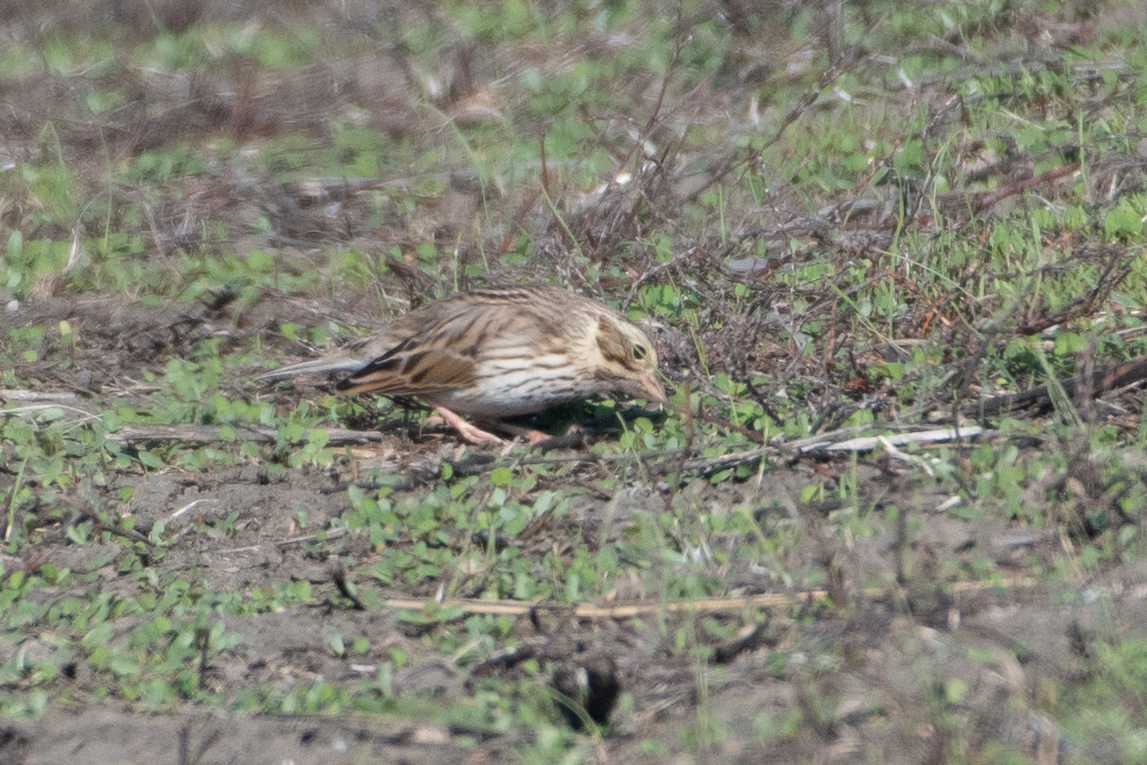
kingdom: Animalia
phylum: Chordata
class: Aves
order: Passeriformes
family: Passerellidae
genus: Passerculus
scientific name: Passerculus sandwichensis
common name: Savannah sparrow
